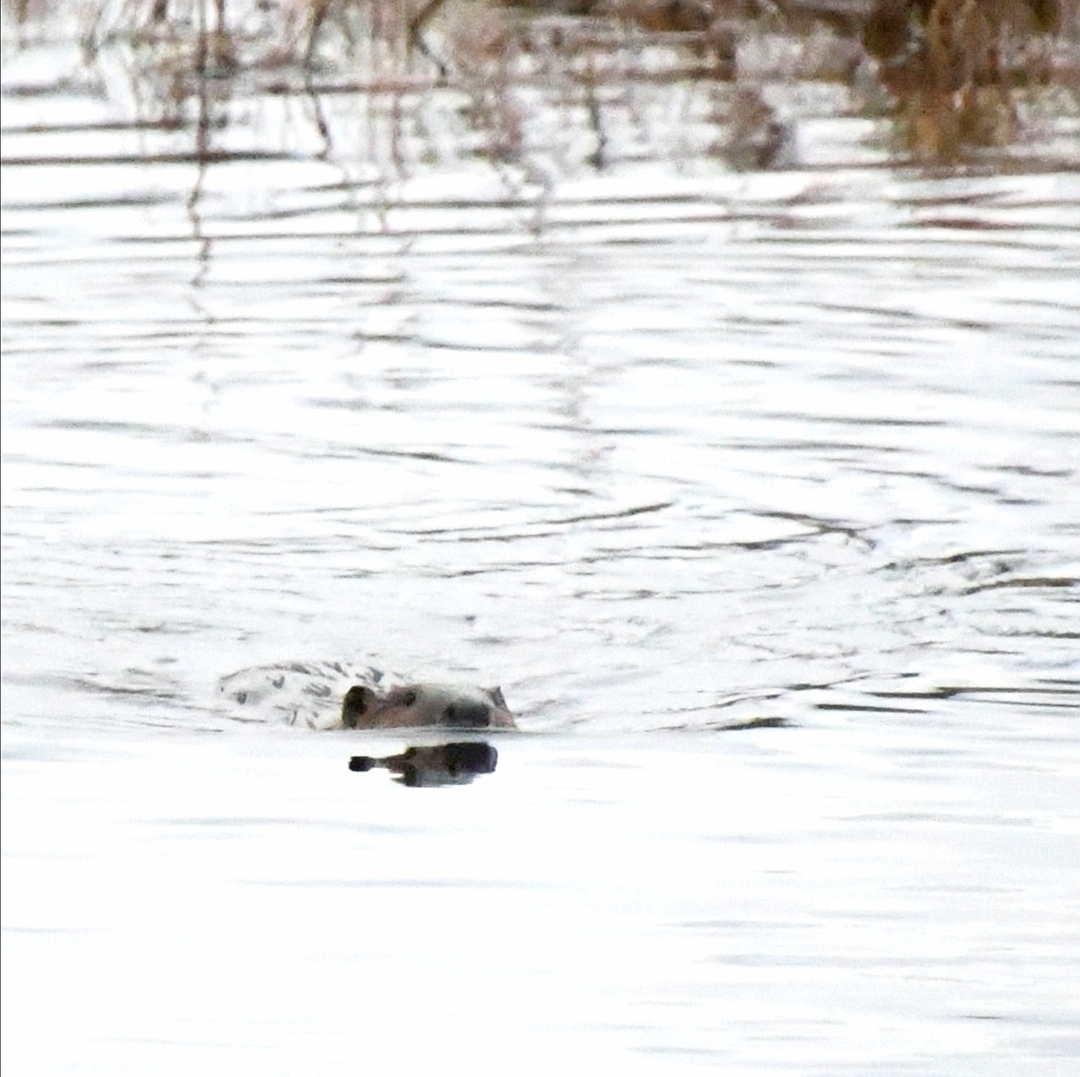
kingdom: Animalia
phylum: Chordata
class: Mammalia
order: Rodentia
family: Castoridae
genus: Castor
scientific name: Castor canadensis
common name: American beaver
